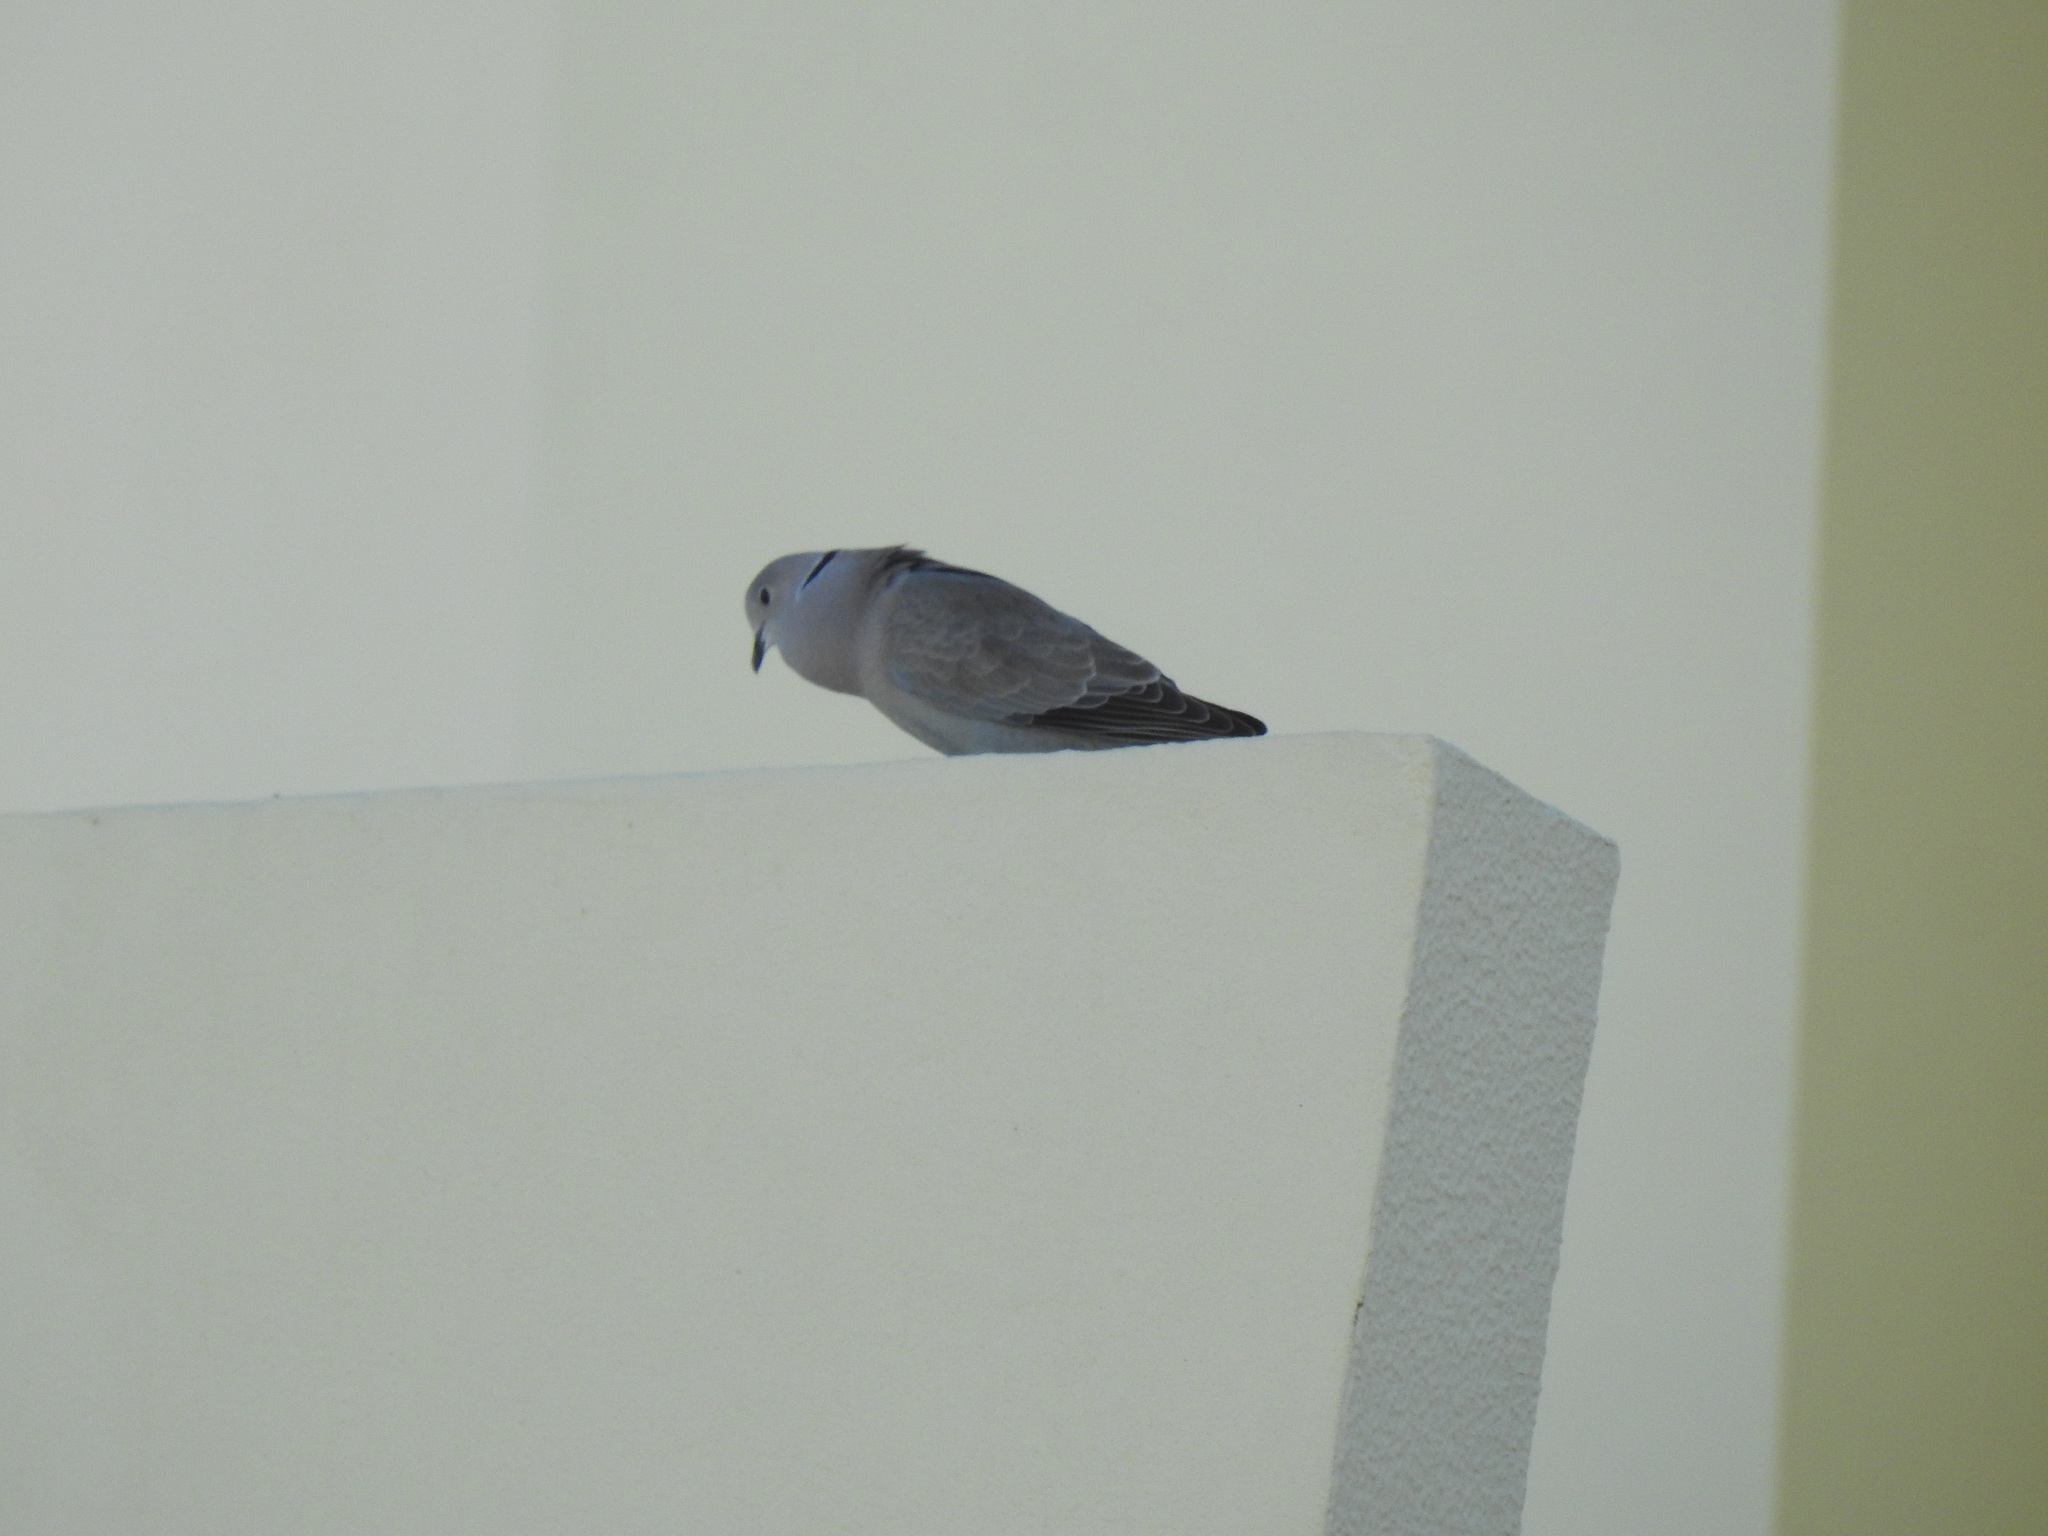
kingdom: Animalia
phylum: Chordata
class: Aves
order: Columbiformes
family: Columbidae
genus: Streptopelia
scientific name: Streptopelia decaocto
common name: Eurasian collared dove
